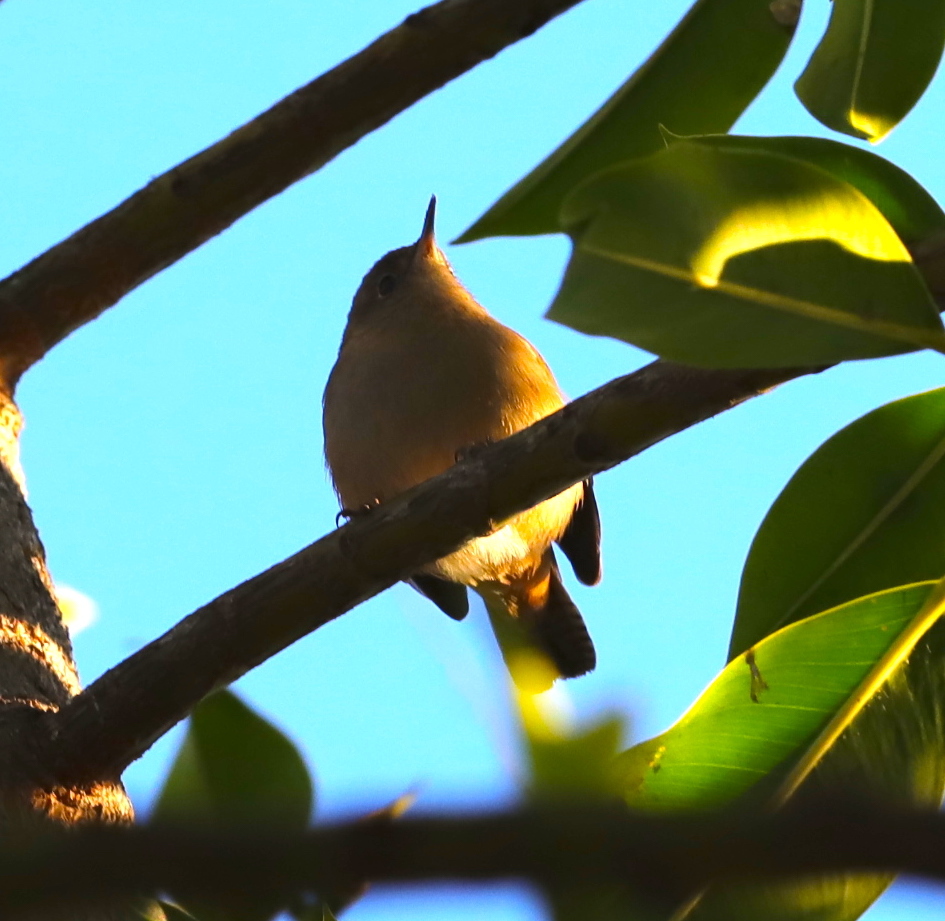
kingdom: Animalia
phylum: Chordata
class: Aves
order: Passeriformes
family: Troglodytidae
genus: Troglodytes
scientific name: Troglodytes aedon
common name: House wren
